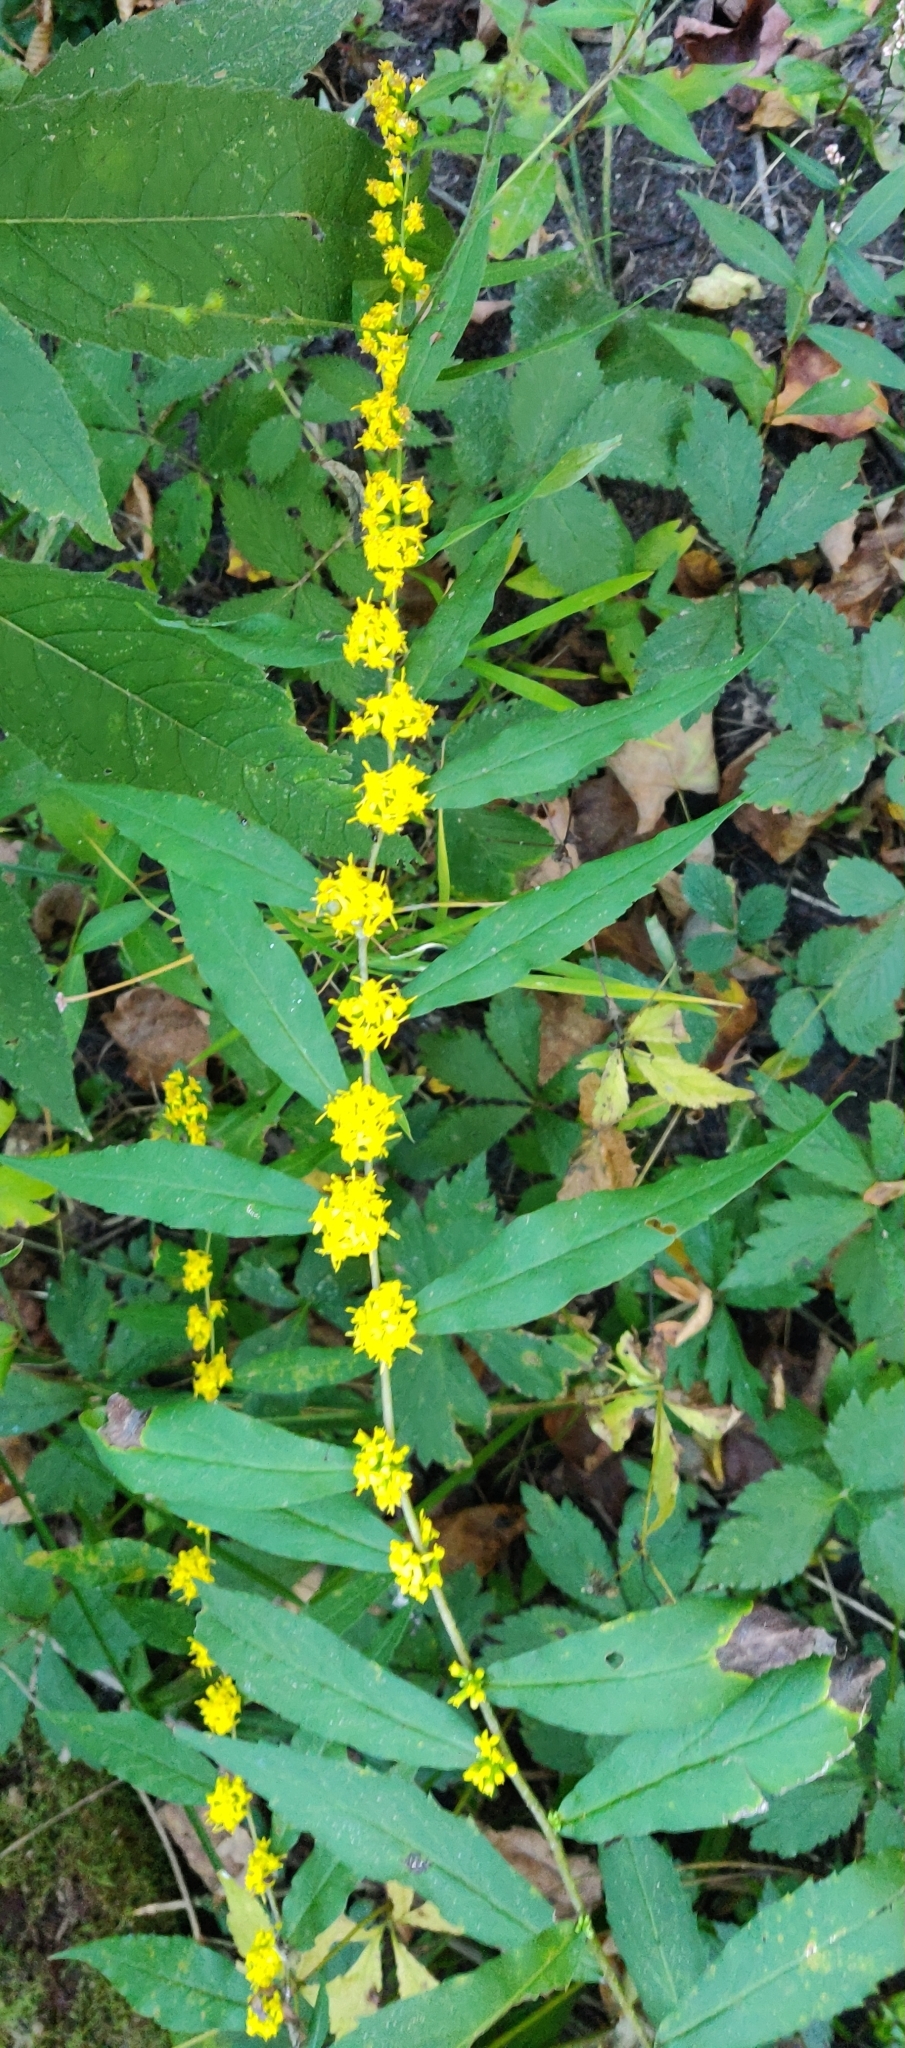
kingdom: Plantae
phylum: Tracheophyta
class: Magnoliopsida
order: Asterales
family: Asteraceae
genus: Solidago
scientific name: Solidago caesia
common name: Woodland goldenrod
